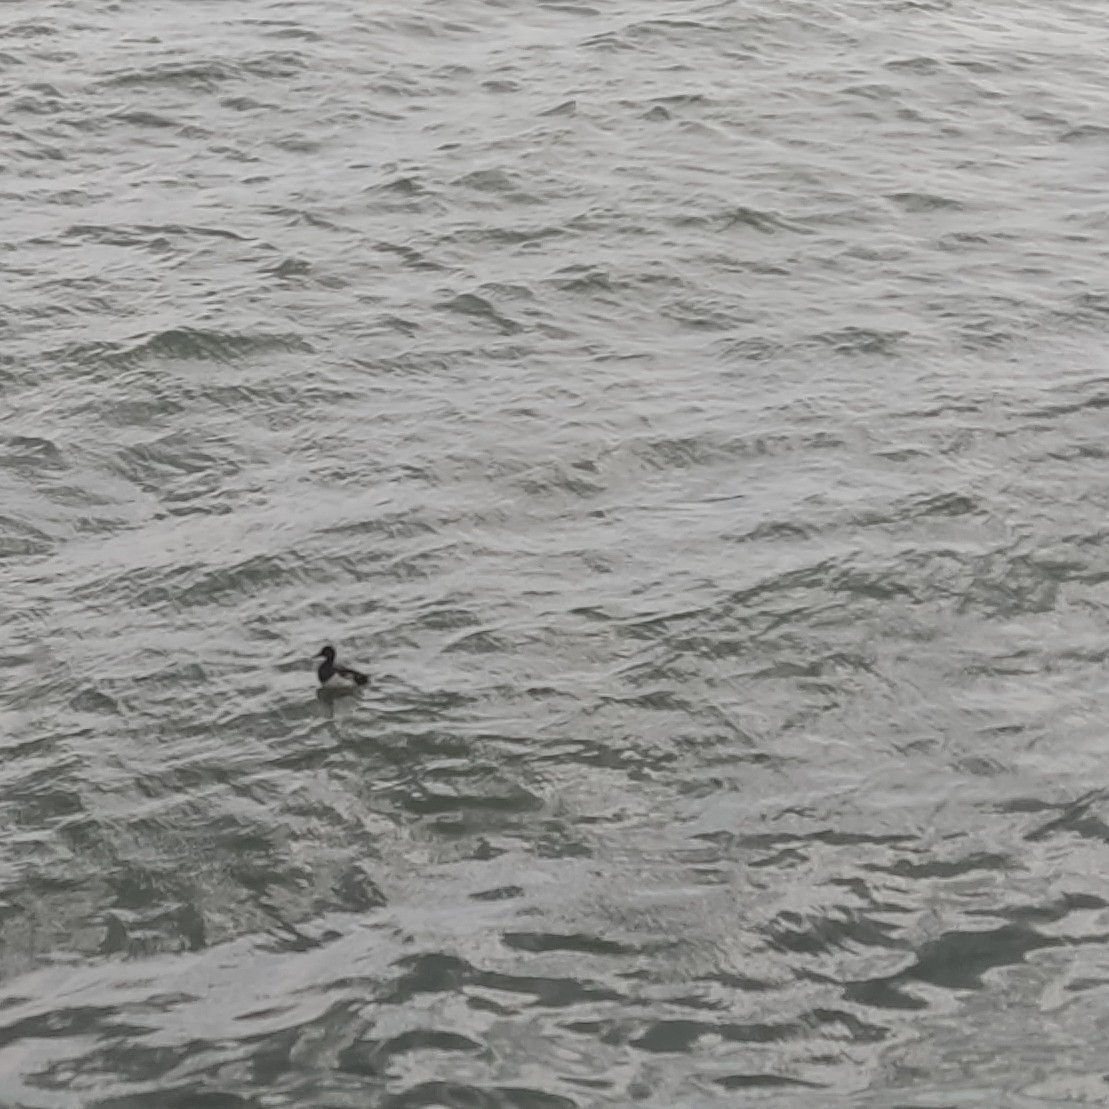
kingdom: Animalia
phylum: Chordata
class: Aves
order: Anseriformes
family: Anatidae
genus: Aythya
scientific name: Aythya fuligula
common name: Tufted duck
